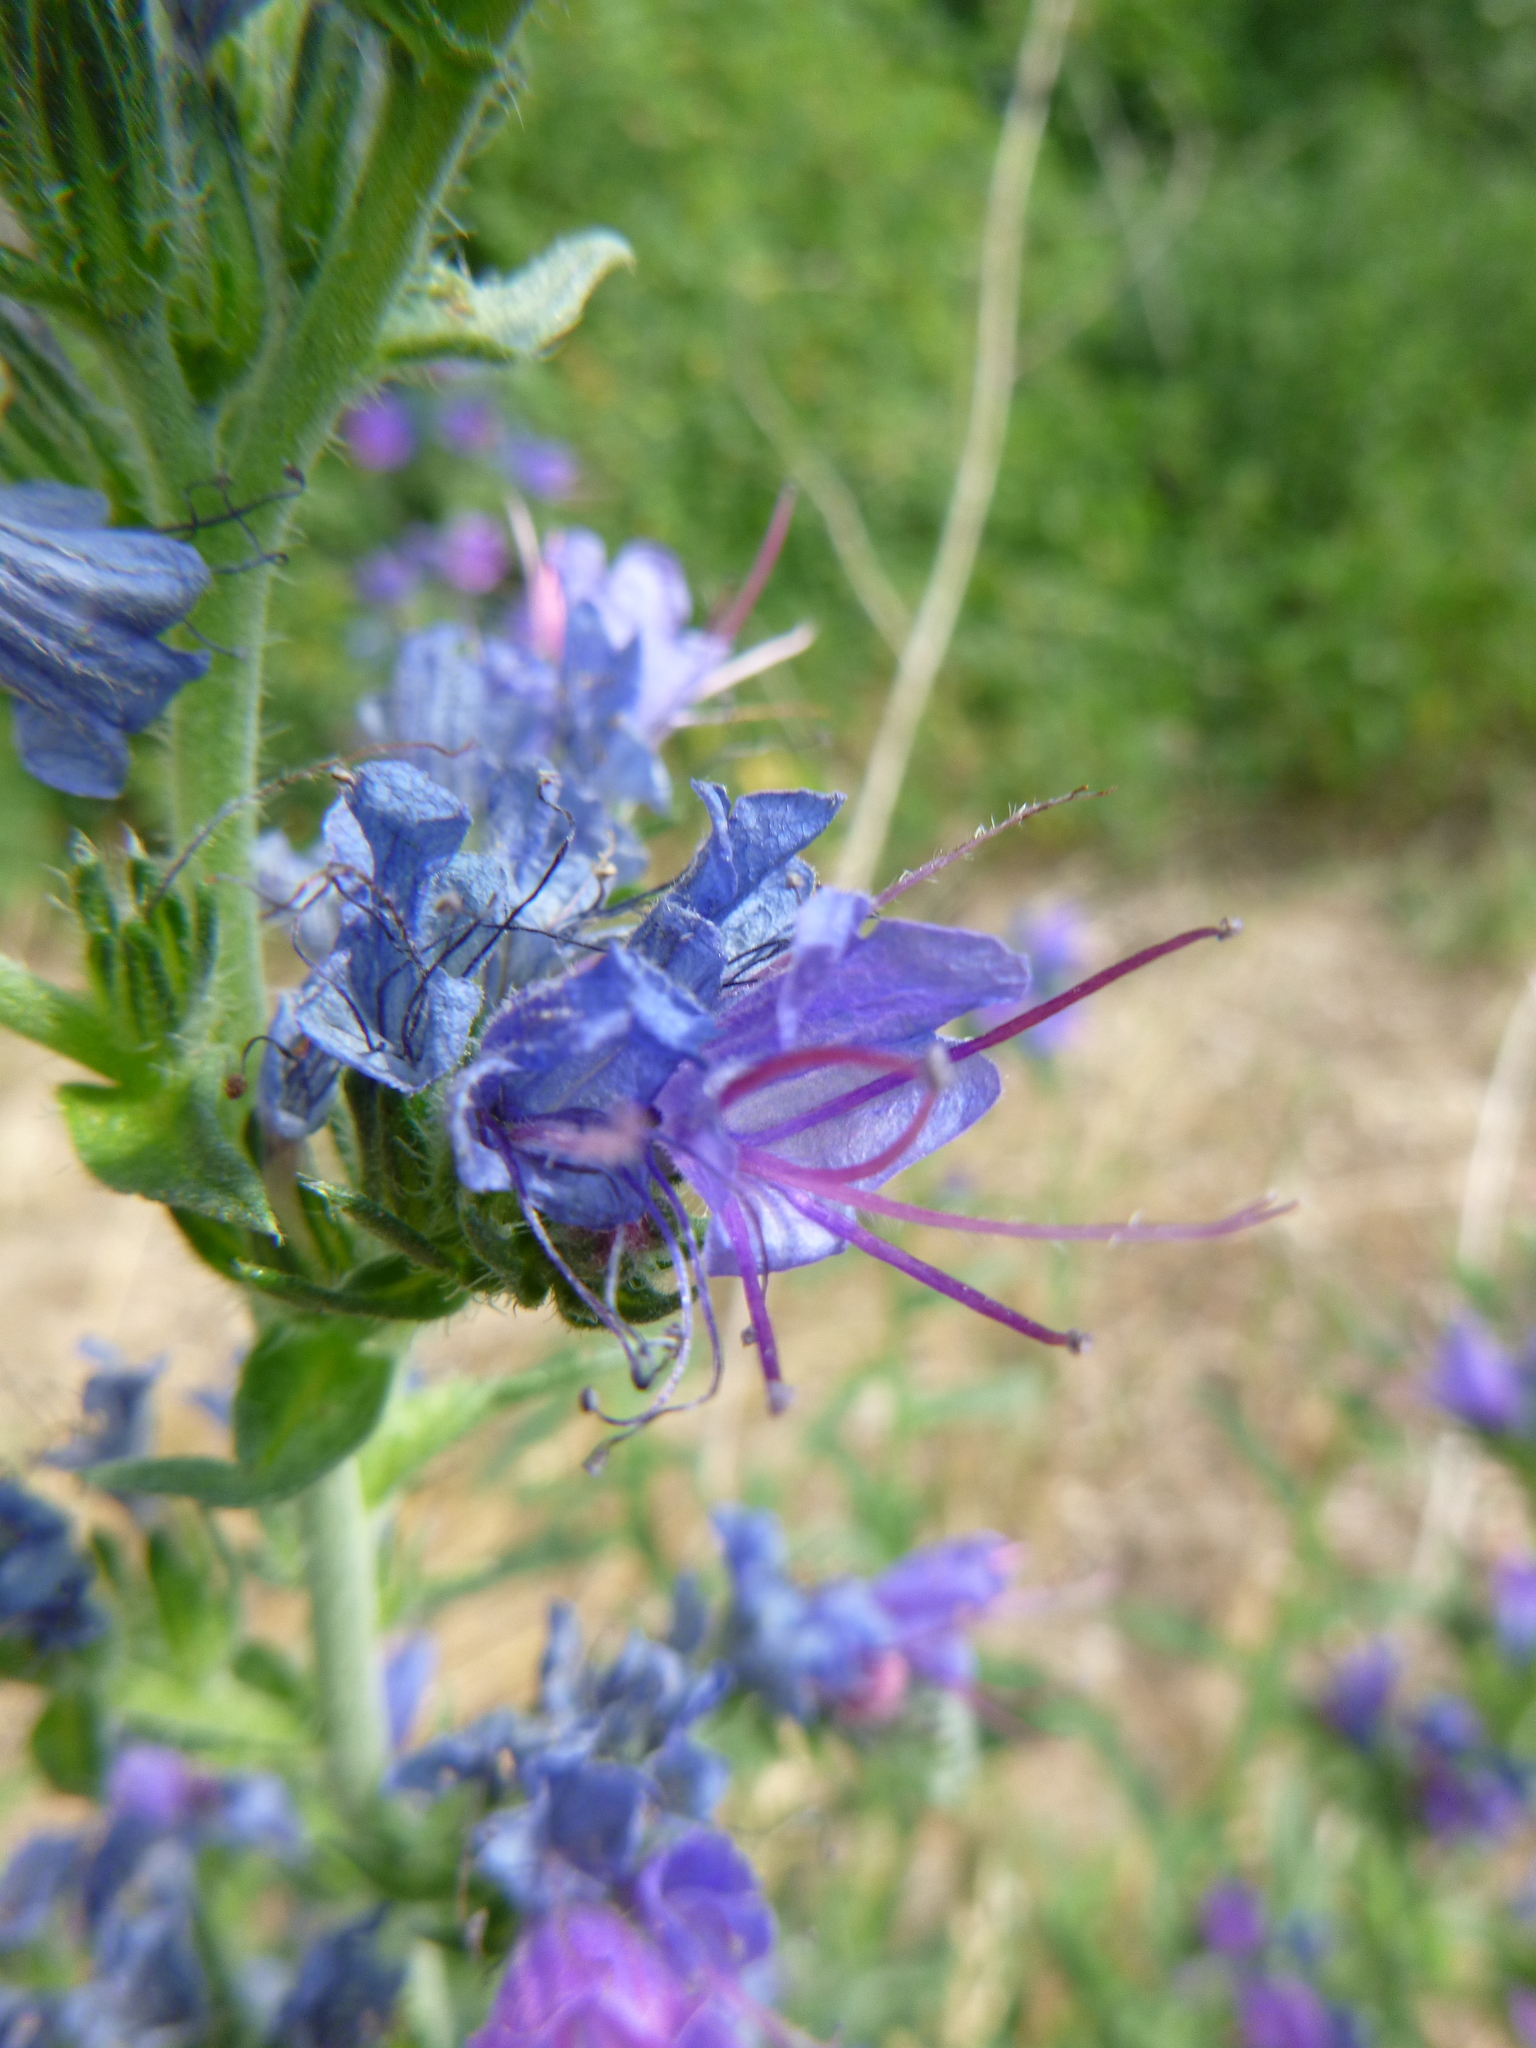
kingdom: Plantae
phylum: Tracheophyta
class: Magnoliopsida
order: Boraginales
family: Boraginaceae
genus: Echium
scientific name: Echium vulgare
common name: Common viper's bugloss
